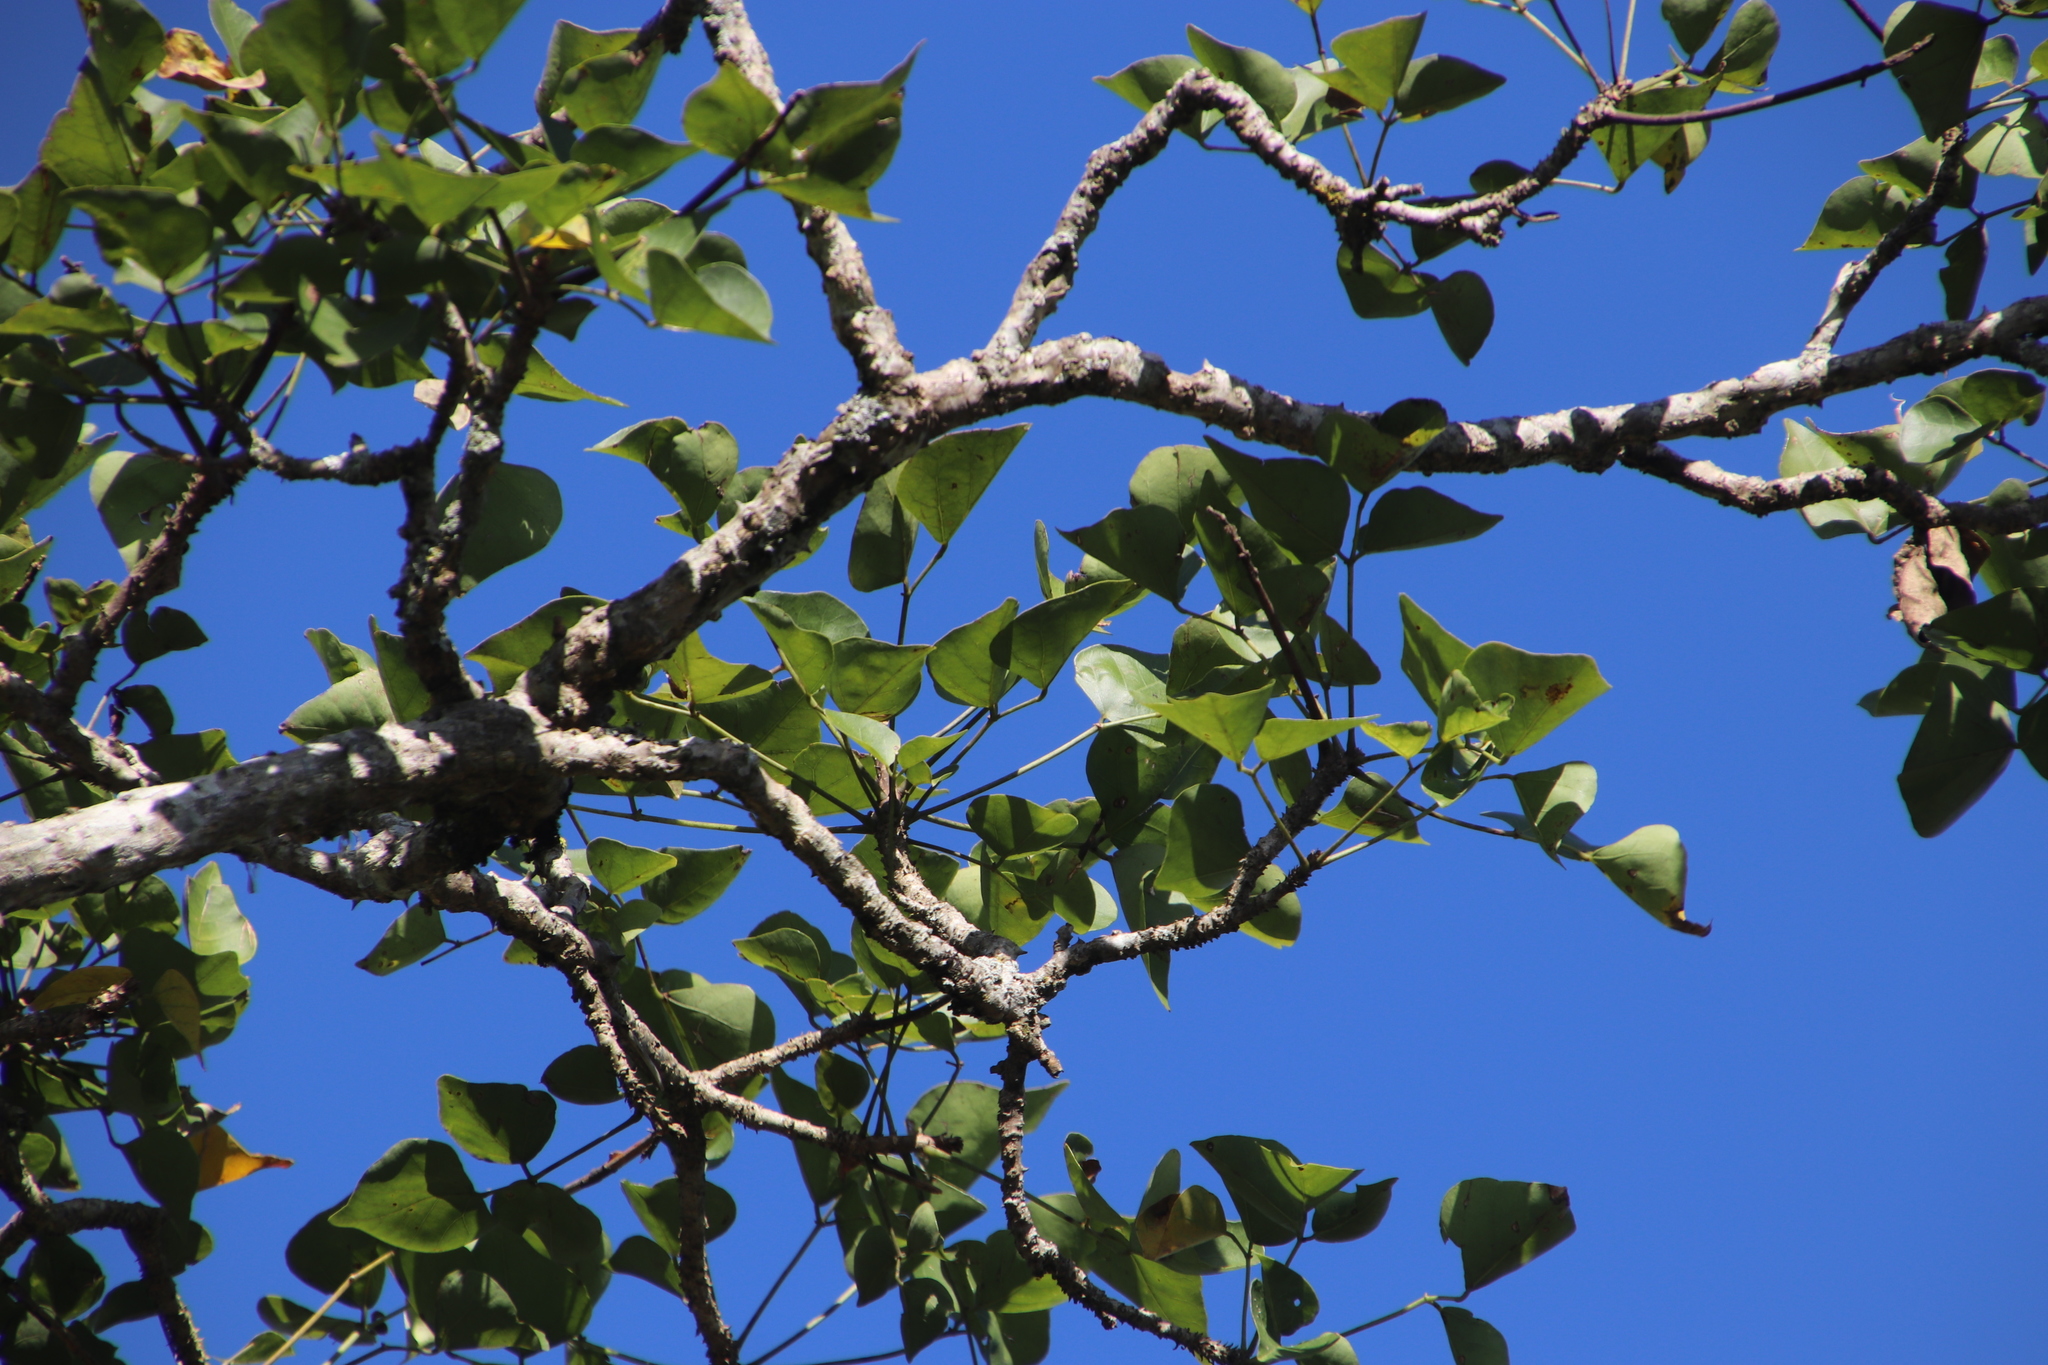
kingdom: Plantae
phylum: Tracheophyta
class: Magnoliopsida
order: Fabales
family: Fabaceae
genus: Erythrina
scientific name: Erythrina lysistemon
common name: Common coral tree
